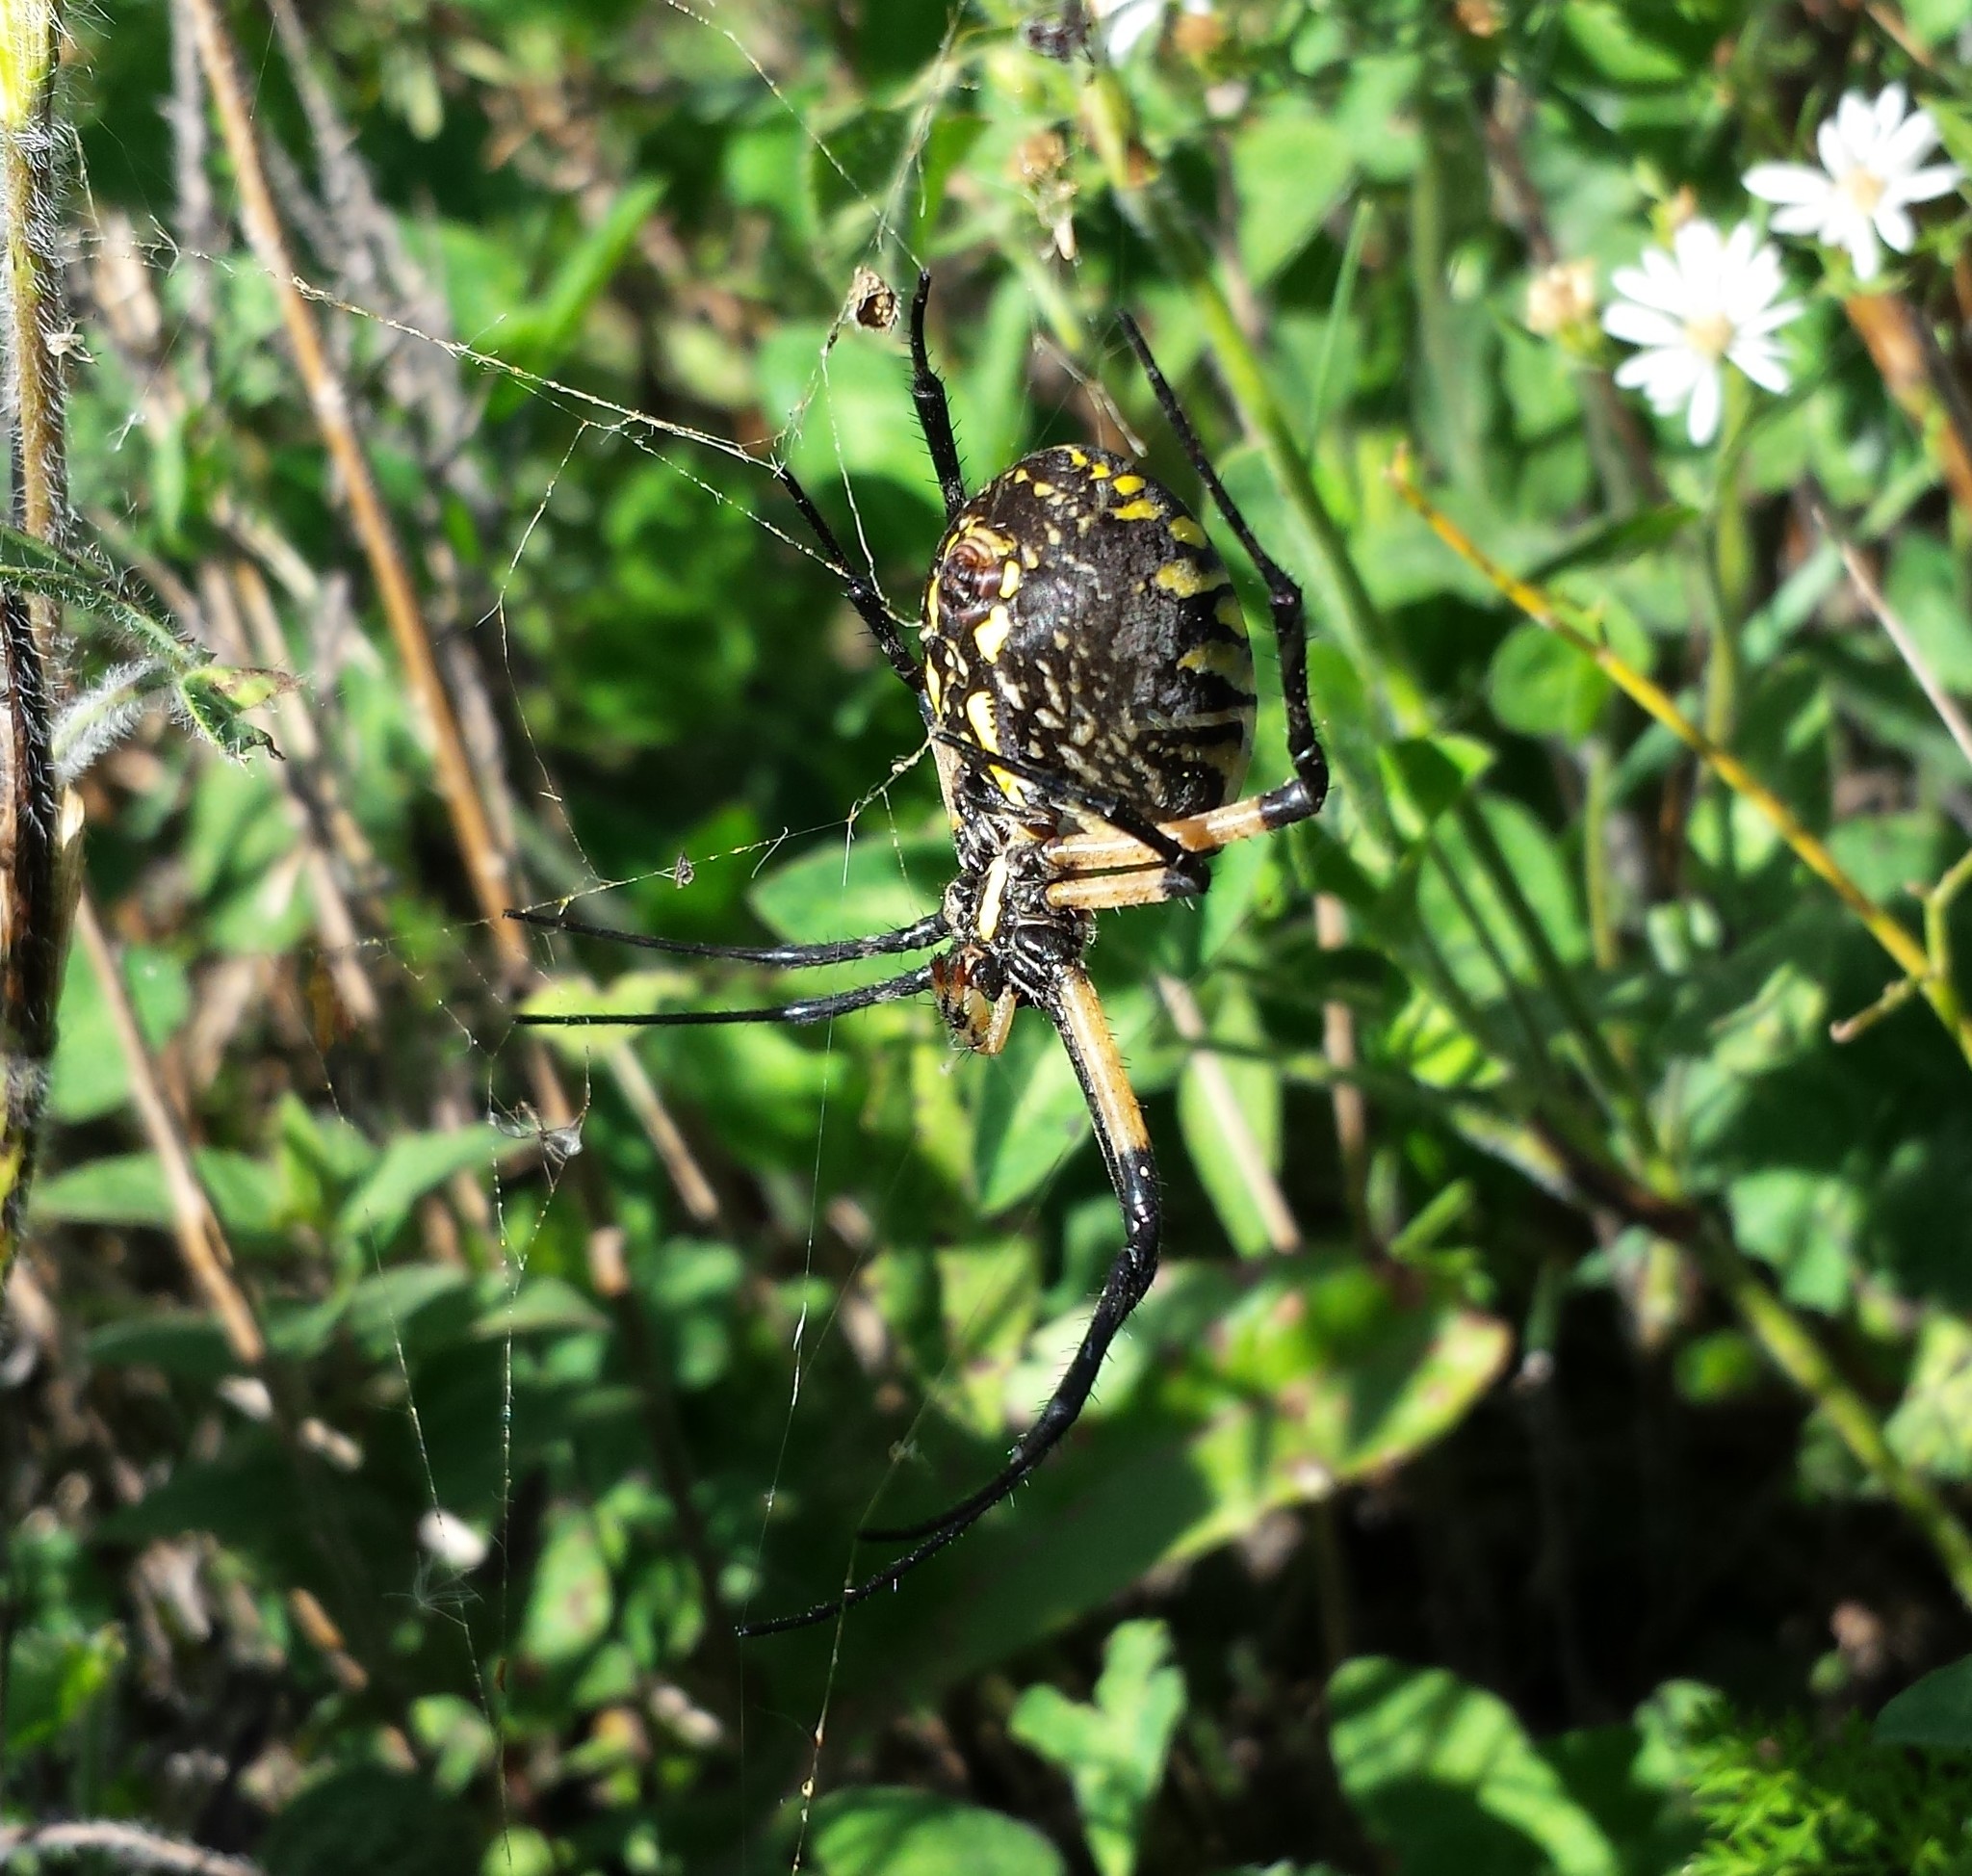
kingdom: Animalia
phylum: Arthropoda
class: Arachnida
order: Araneae
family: Araneidae
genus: Argiope
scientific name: Argiope aurantia
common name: Orb weavers
